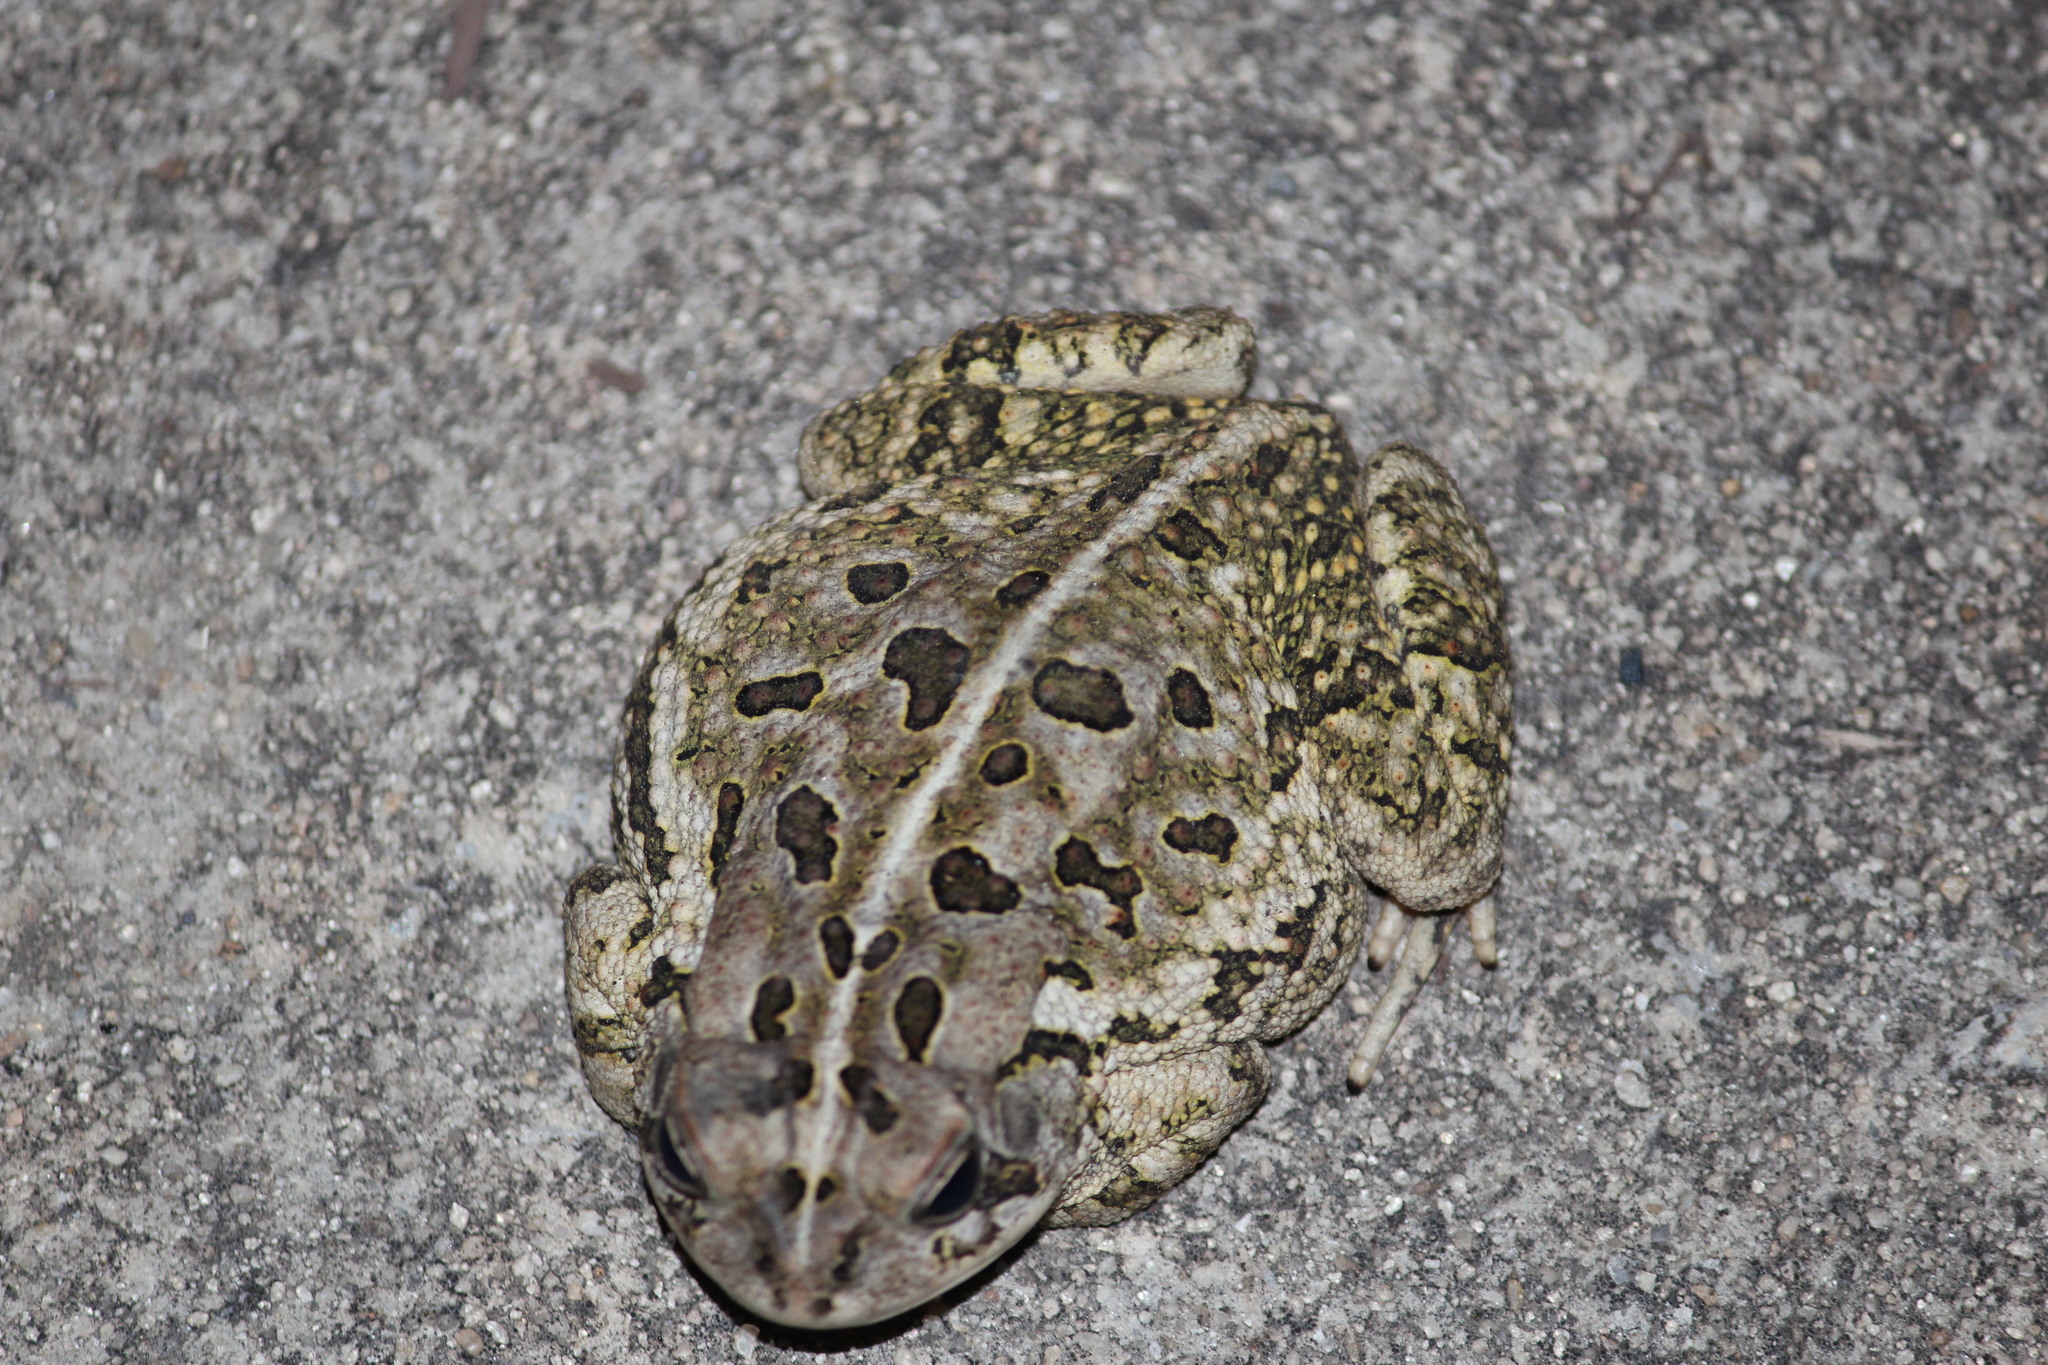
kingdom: Animalia
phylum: Chordata
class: Amphibia
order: Anura
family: Bufonidae
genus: Anaxyrus
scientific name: Anaxyrus fowleri
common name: Fowler's toad
